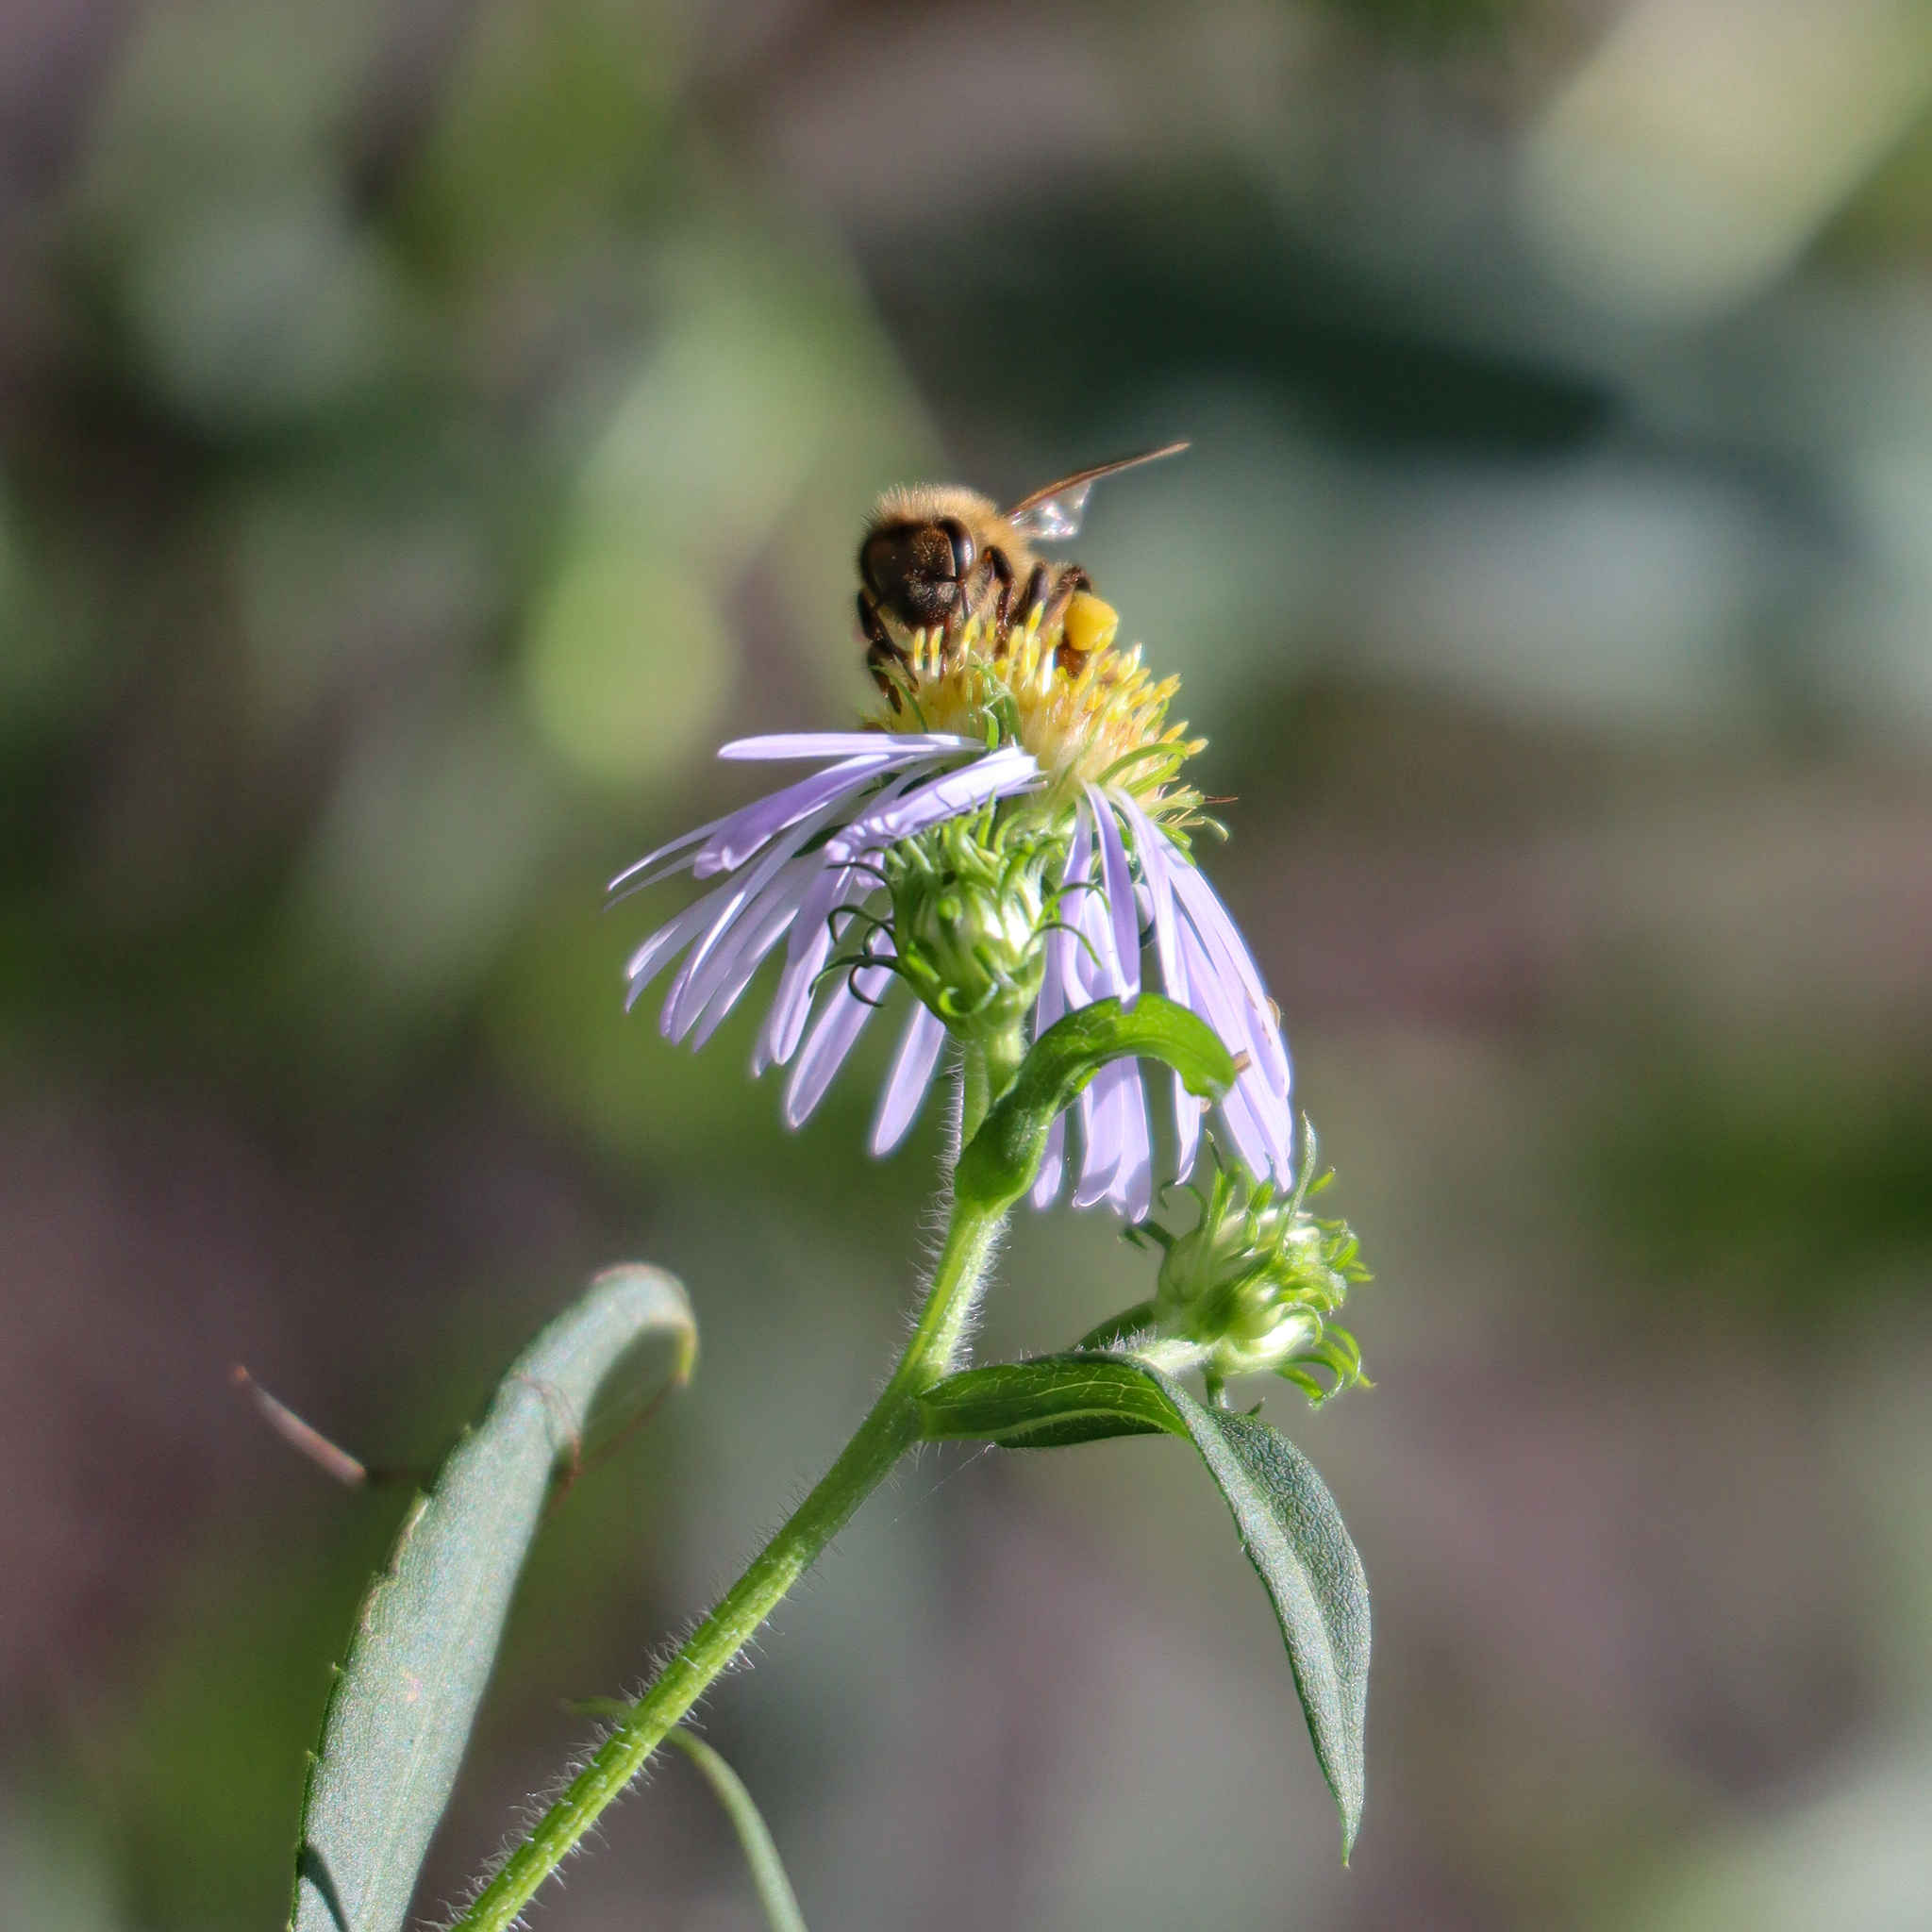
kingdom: Animalia
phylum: Arthropoda
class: Insecta
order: Hymenoptera
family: Apidae
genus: Apis
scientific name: Apis mellifera
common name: Honey bee
